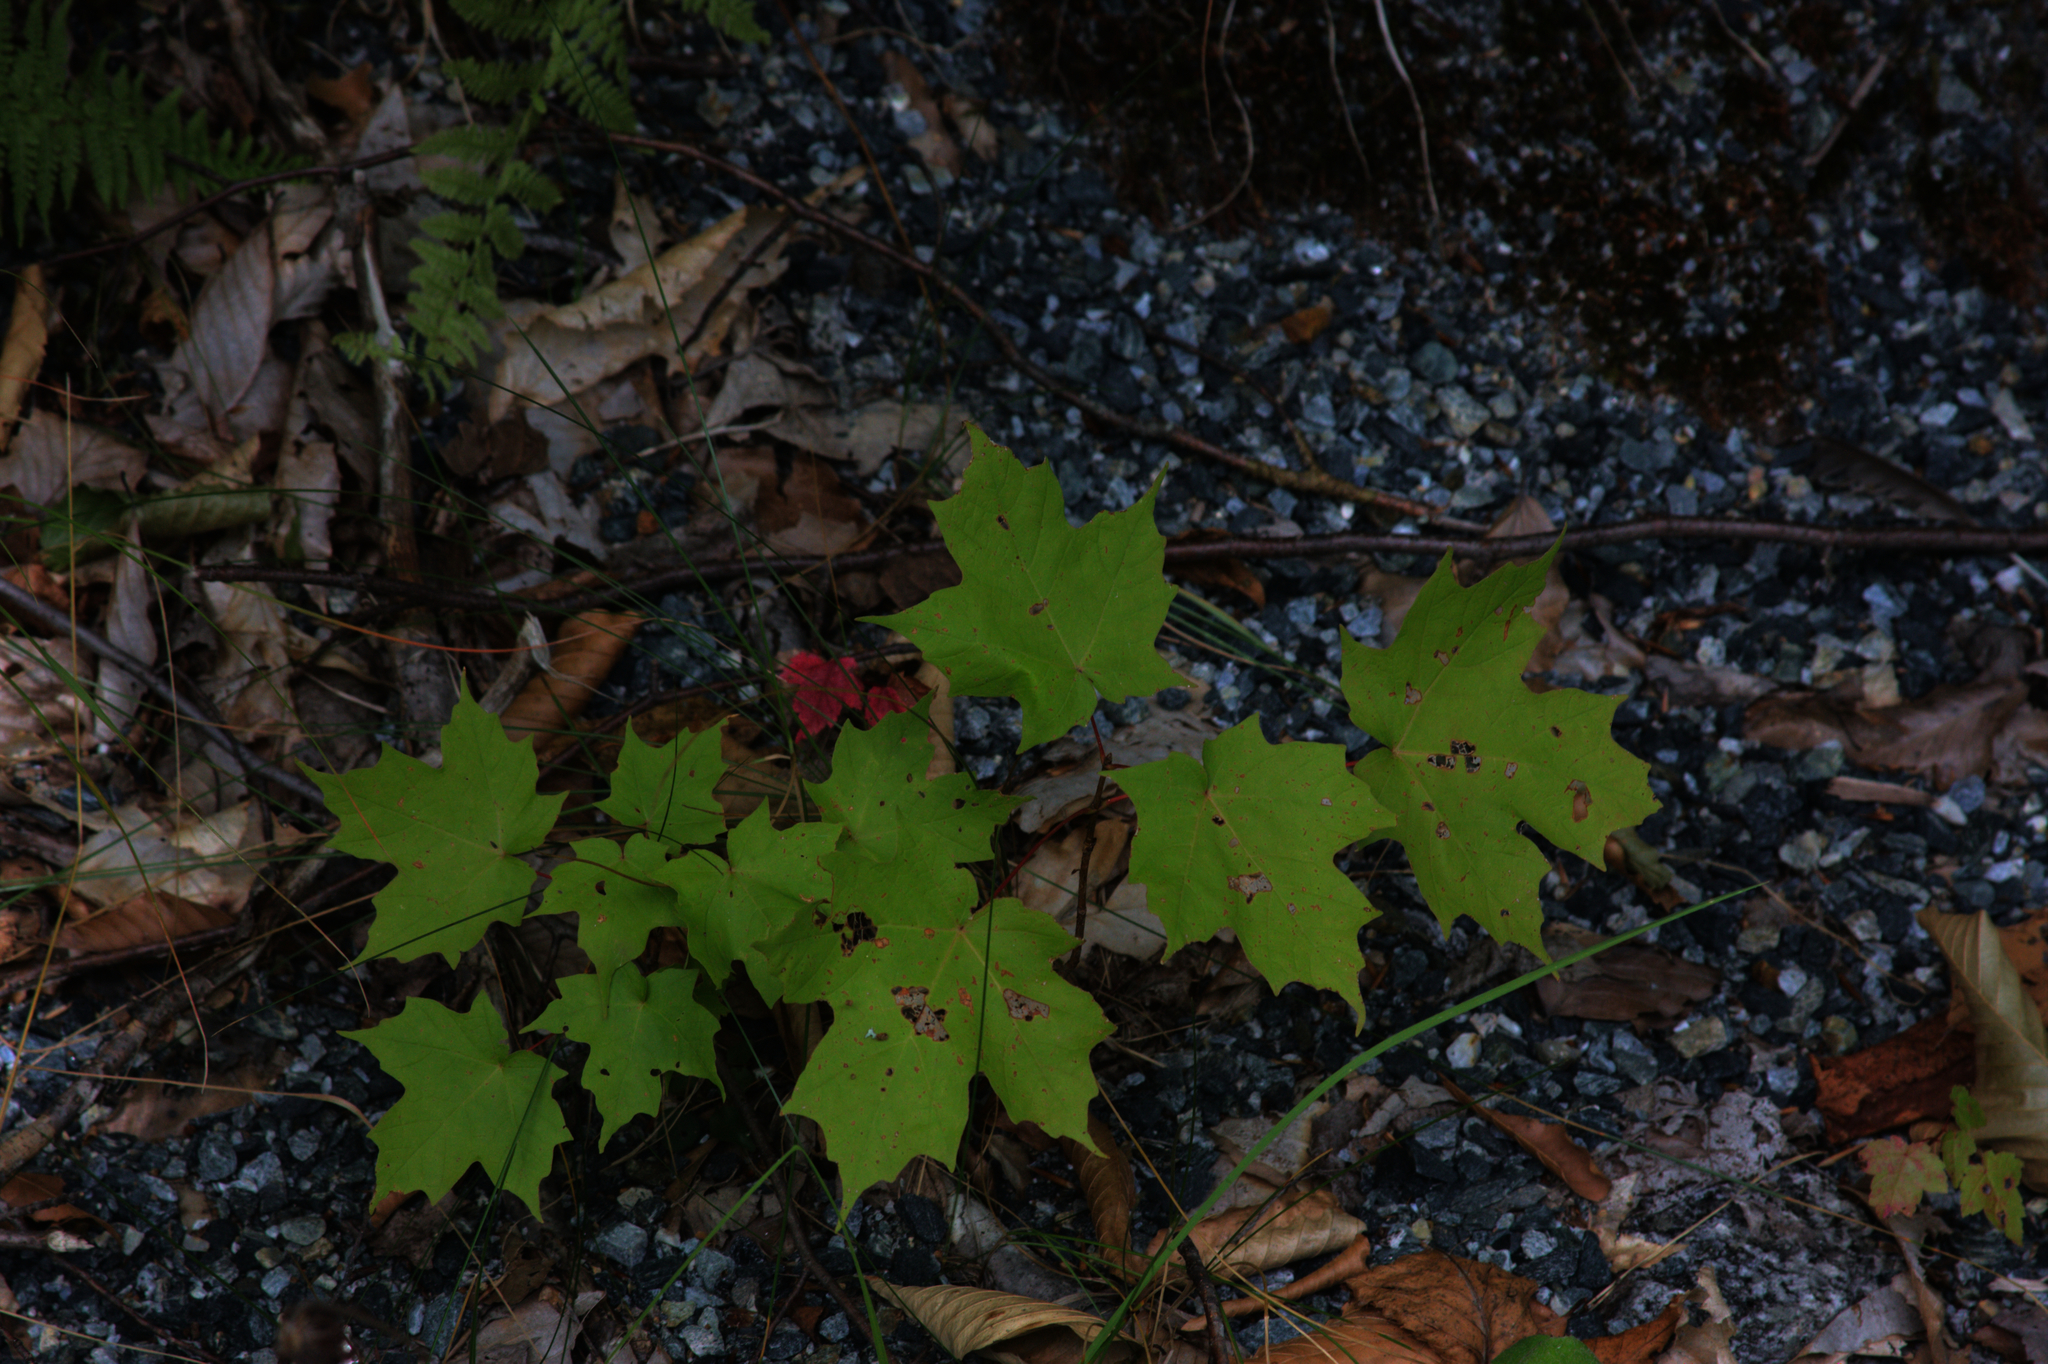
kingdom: Plantae
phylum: Tracheophyta
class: Magnoliopsida
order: Sapindales
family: Sapindaceae
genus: Acer
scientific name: Acer saccharum
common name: Sugar maple
